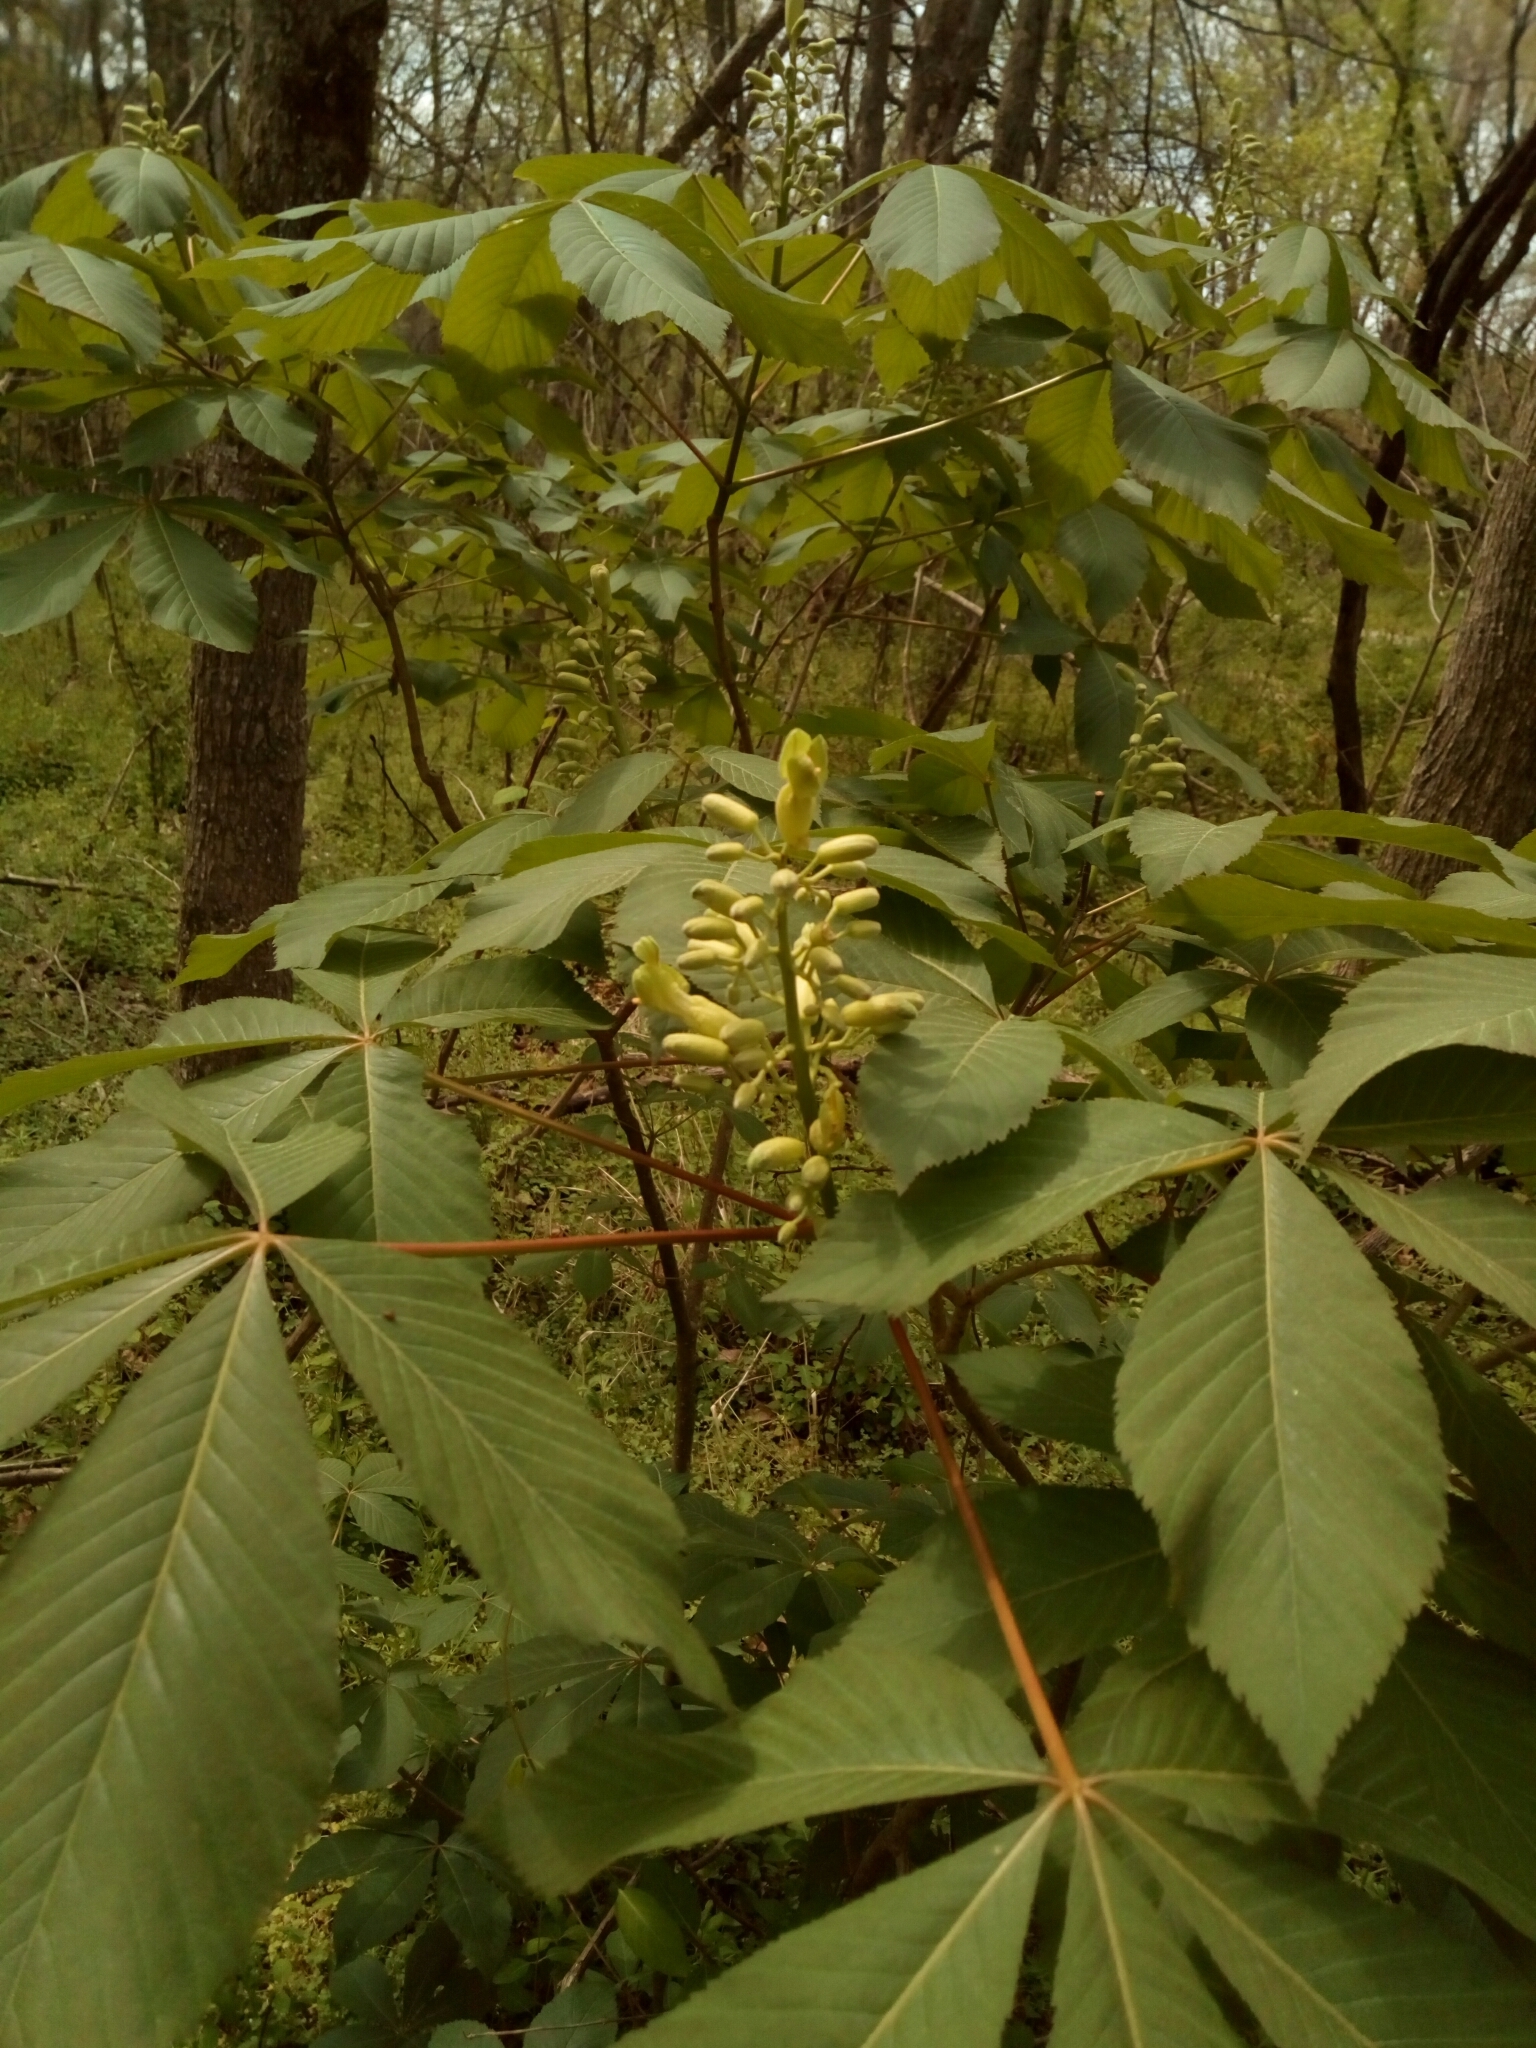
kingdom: Plantae
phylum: Tracheophyta
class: Magnoliopsida
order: Sapindales
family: Sapindaceae
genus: Aesculus
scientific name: Aesculus sylvatica
